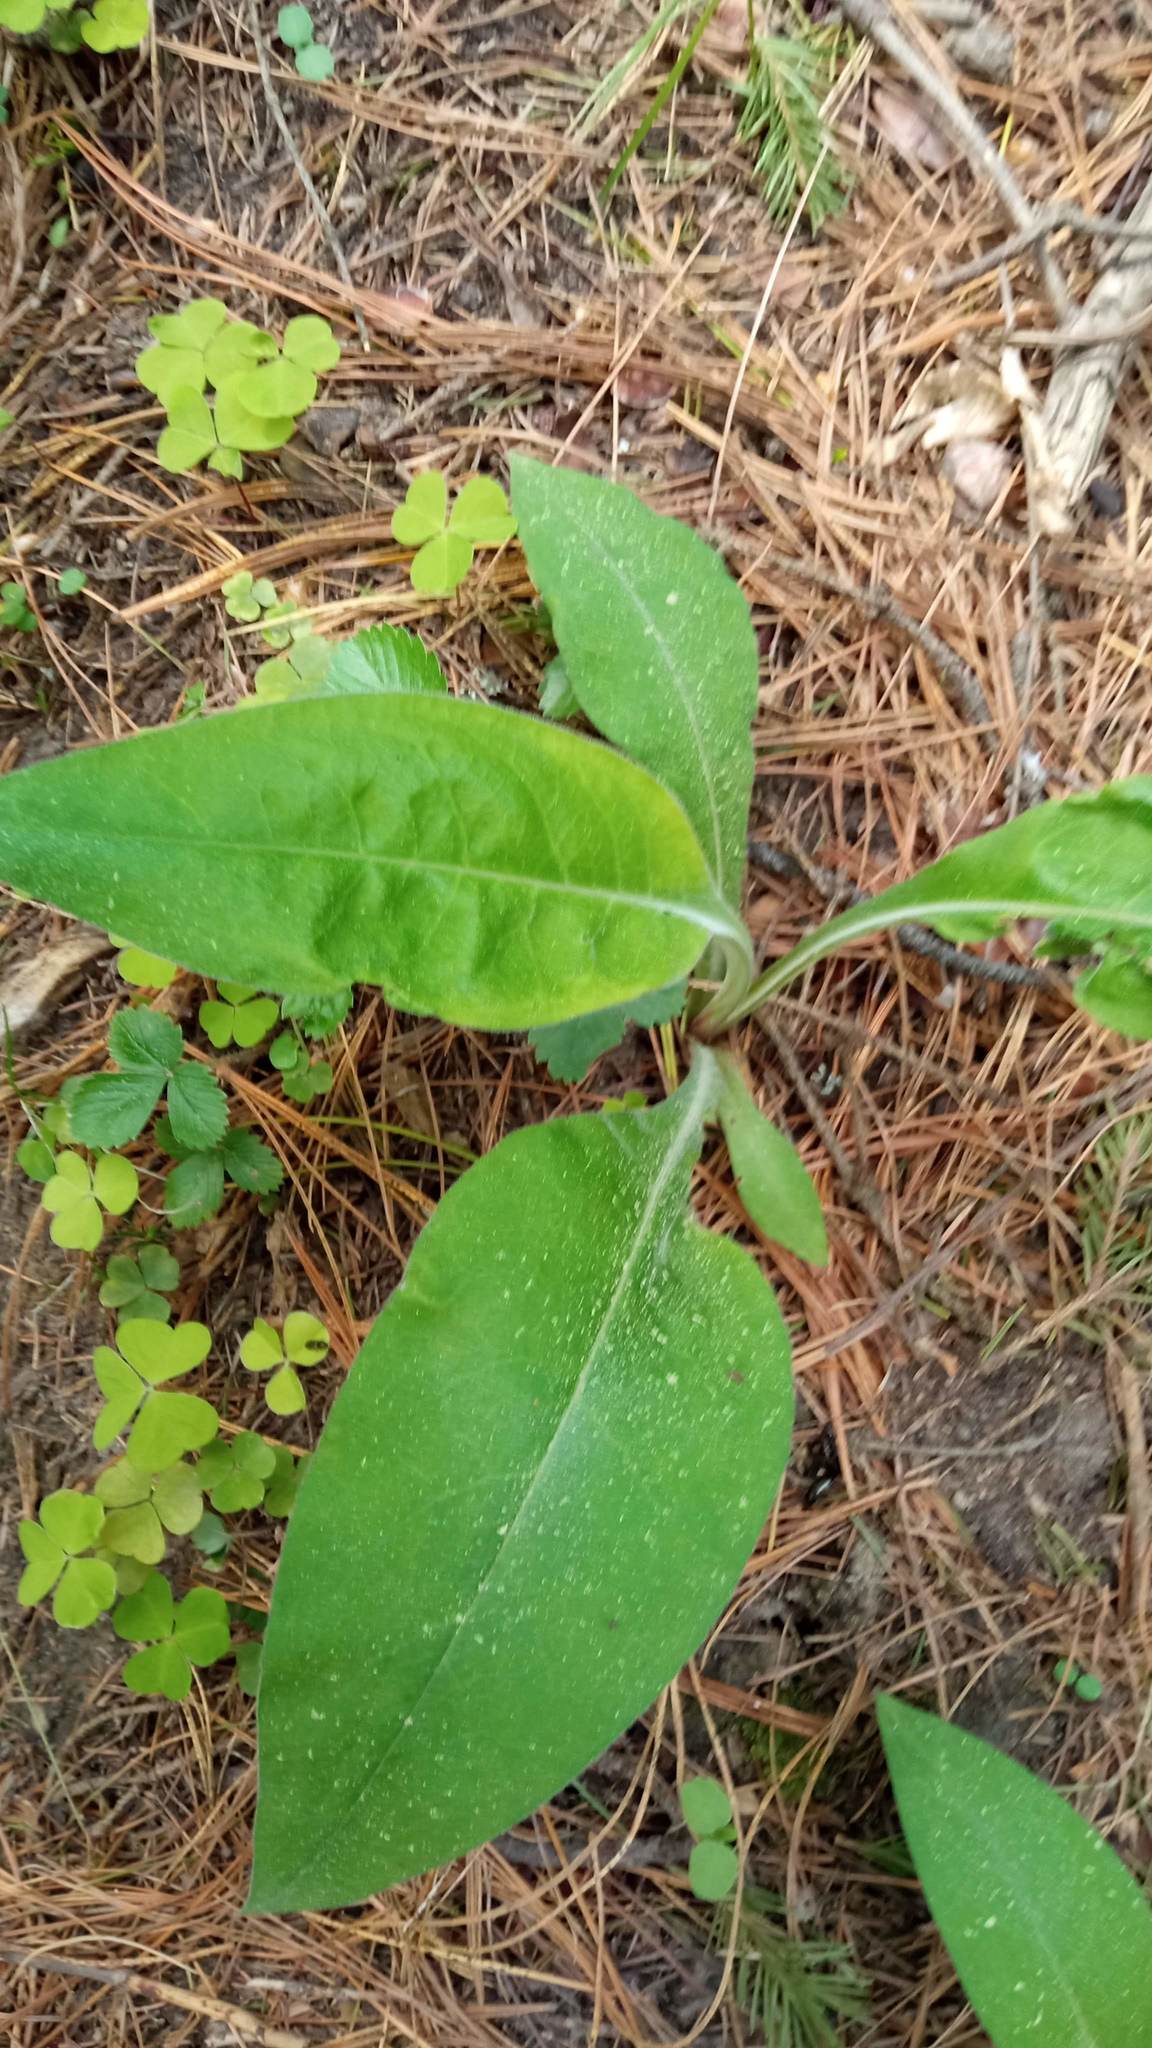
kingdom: Plantae
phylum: Tracheophyta
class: Magnoliopsida
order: Boraginales
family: Boraginaceae
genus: Pulmonaria
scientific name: Pulmonaria mollis
